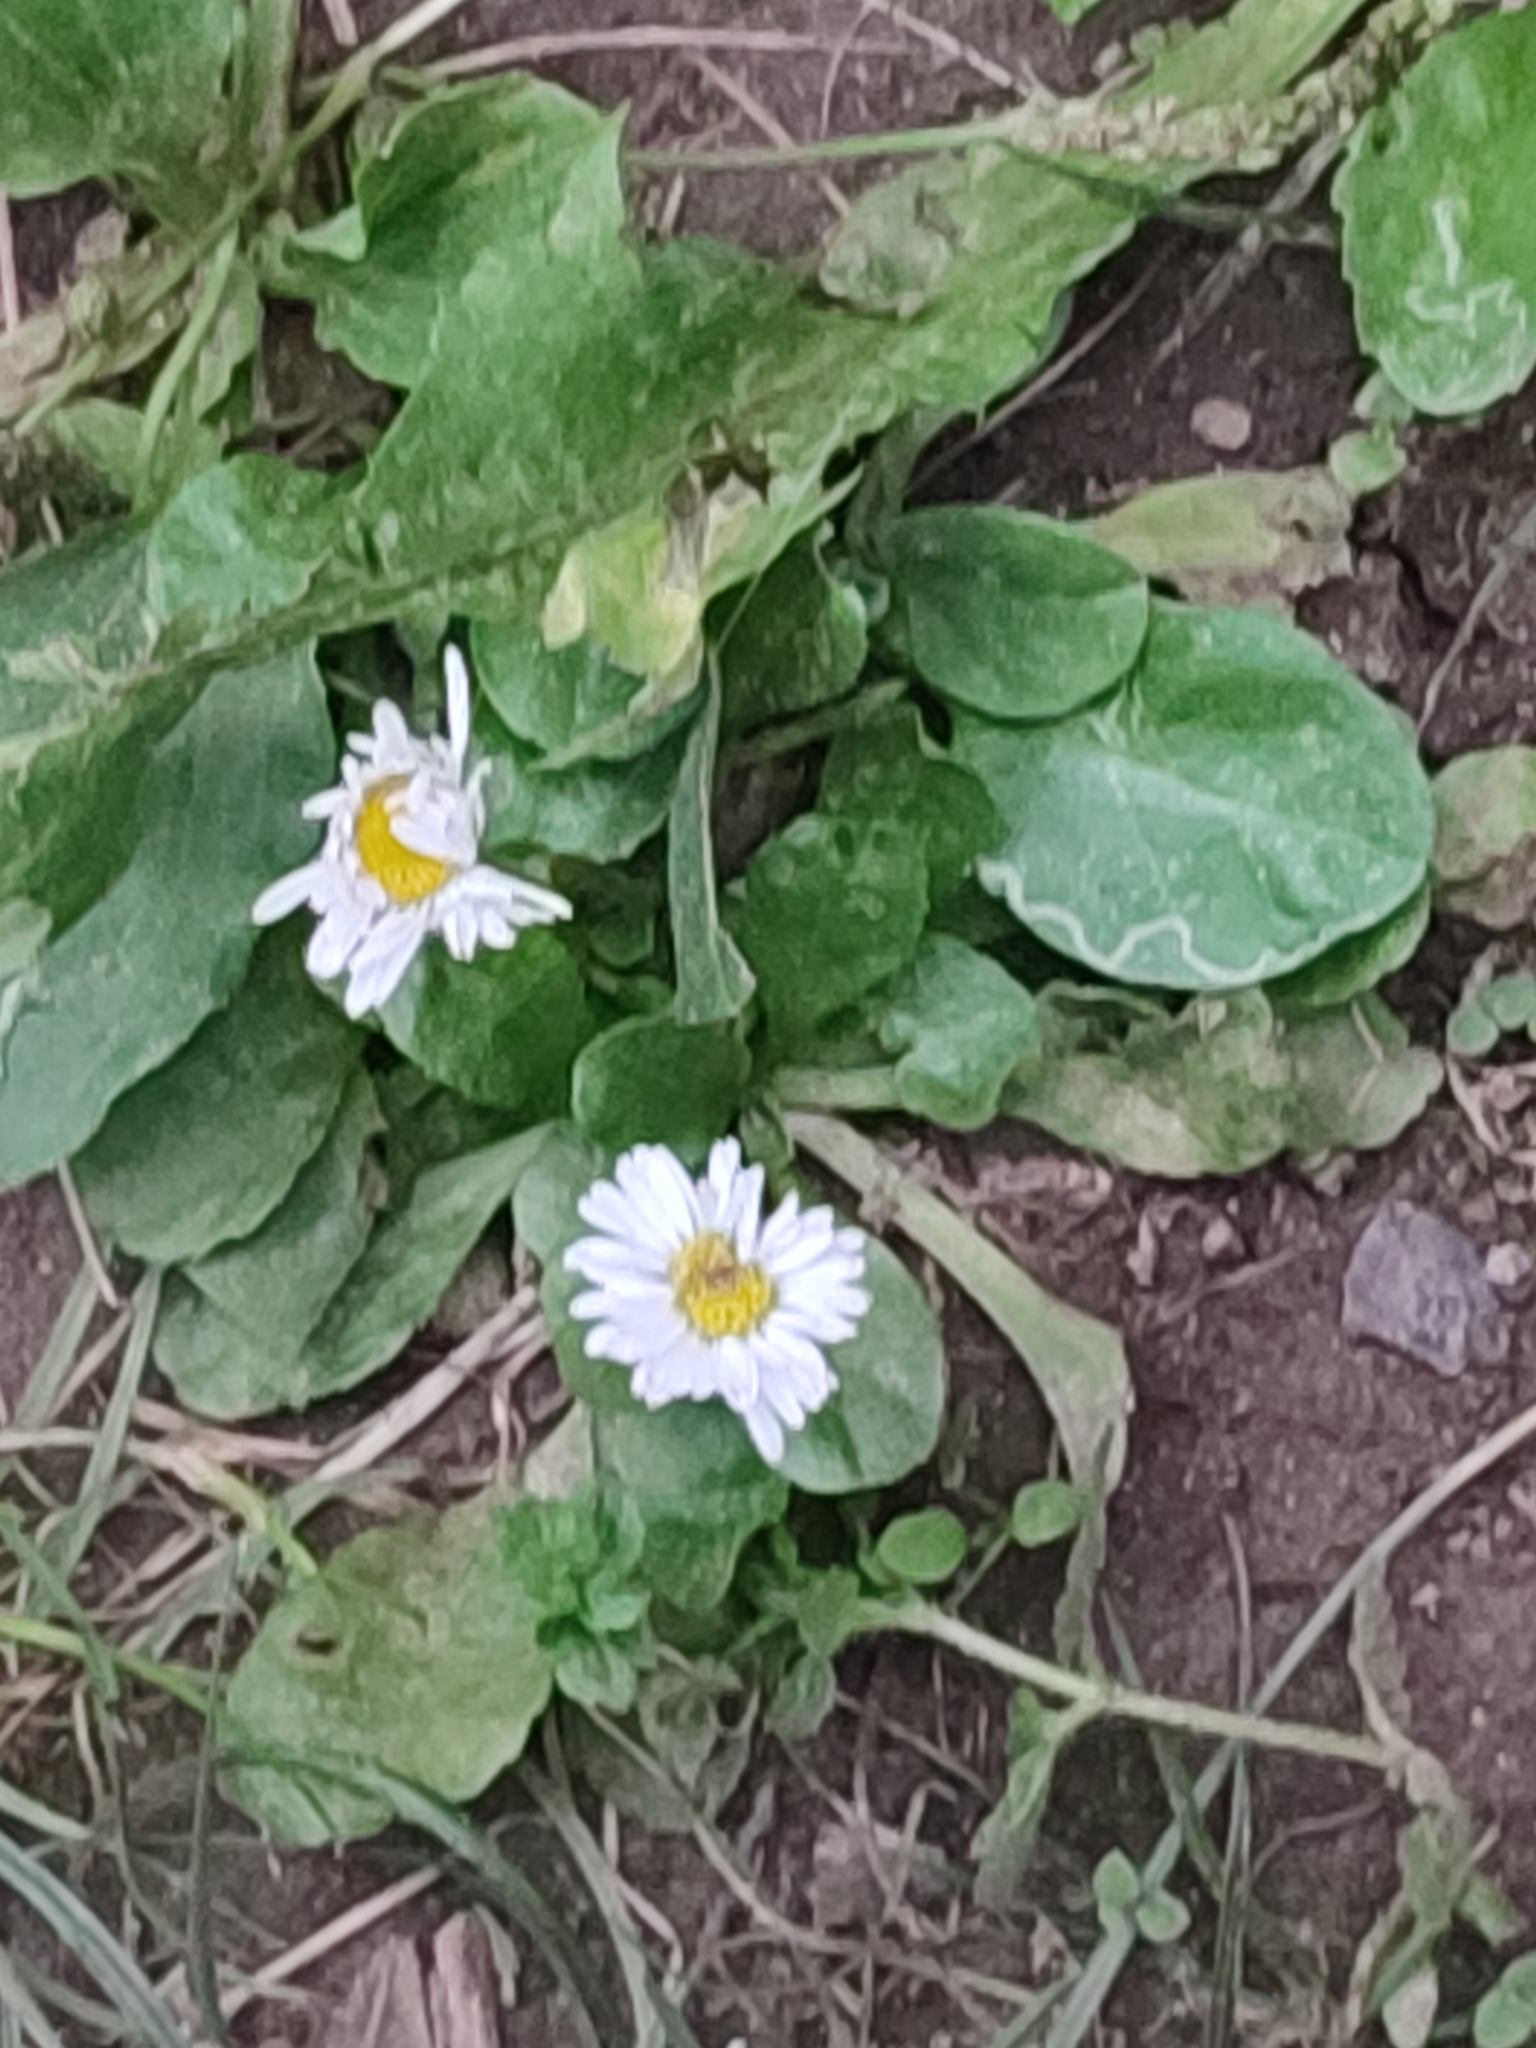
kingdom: Plantae
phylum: Tracheophyta
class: Magnoliopsida
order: Asterales
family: Asteraceae
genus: Bellis
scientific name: Bellis perennis
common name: Lawndaisy
